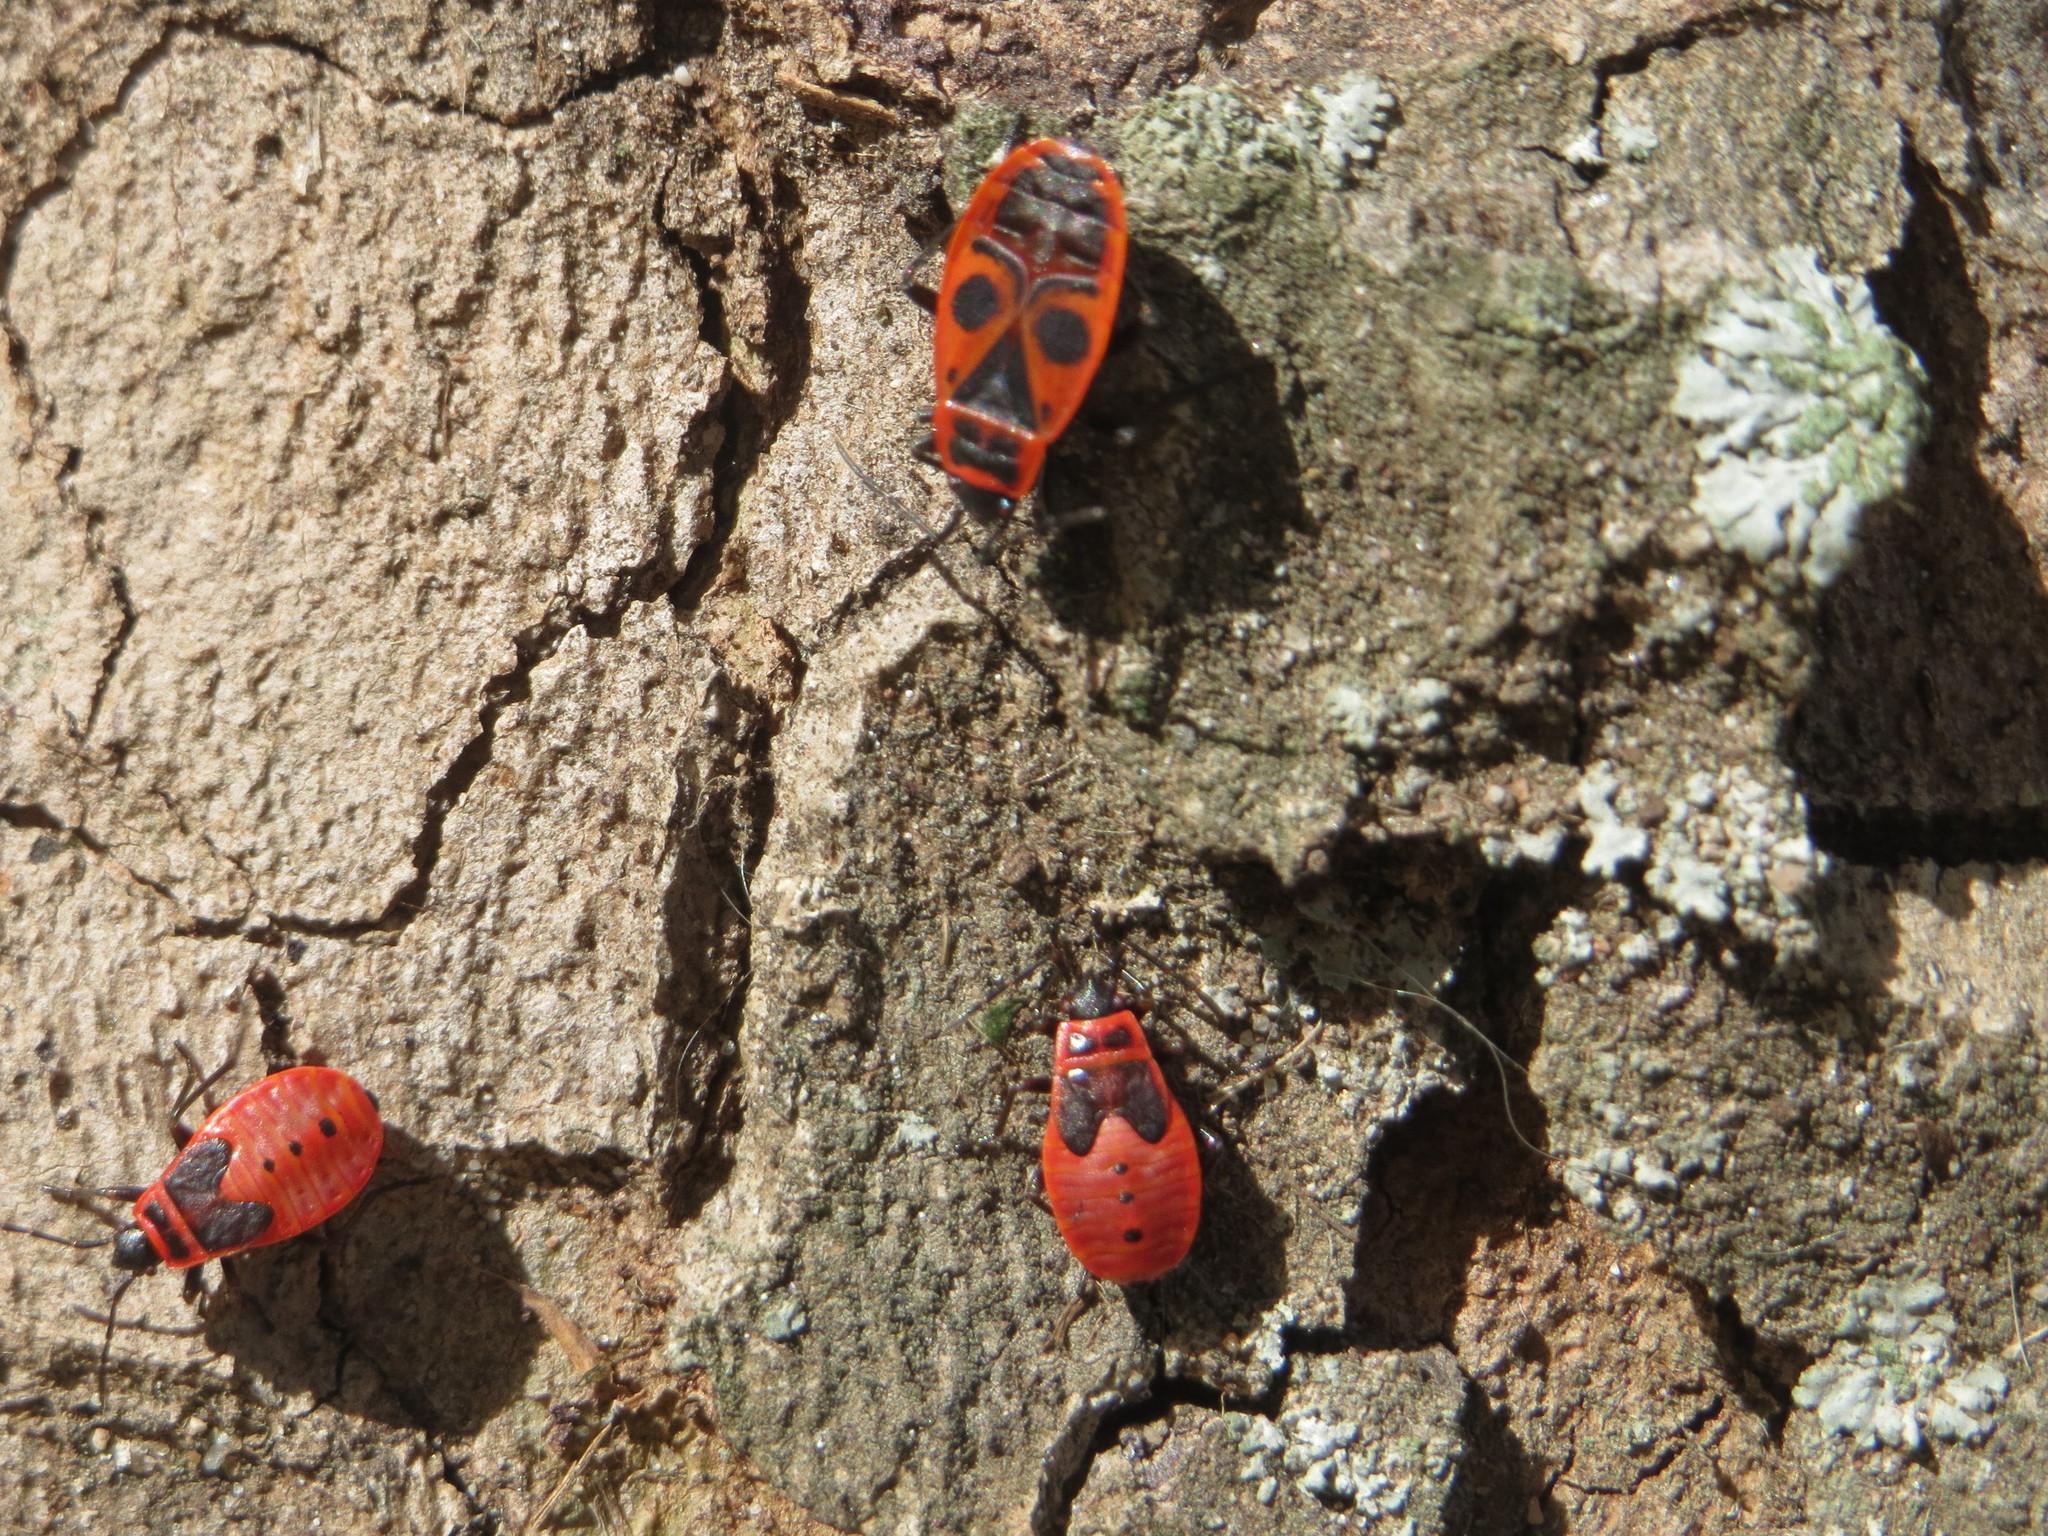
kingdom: Animalia
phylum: Arthropoda
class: Insecta
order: Hemiptera
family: Pyrrhocoridae
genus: Pyrrhocoris
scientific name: Pyrrhocoris apterus
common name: Firebug
